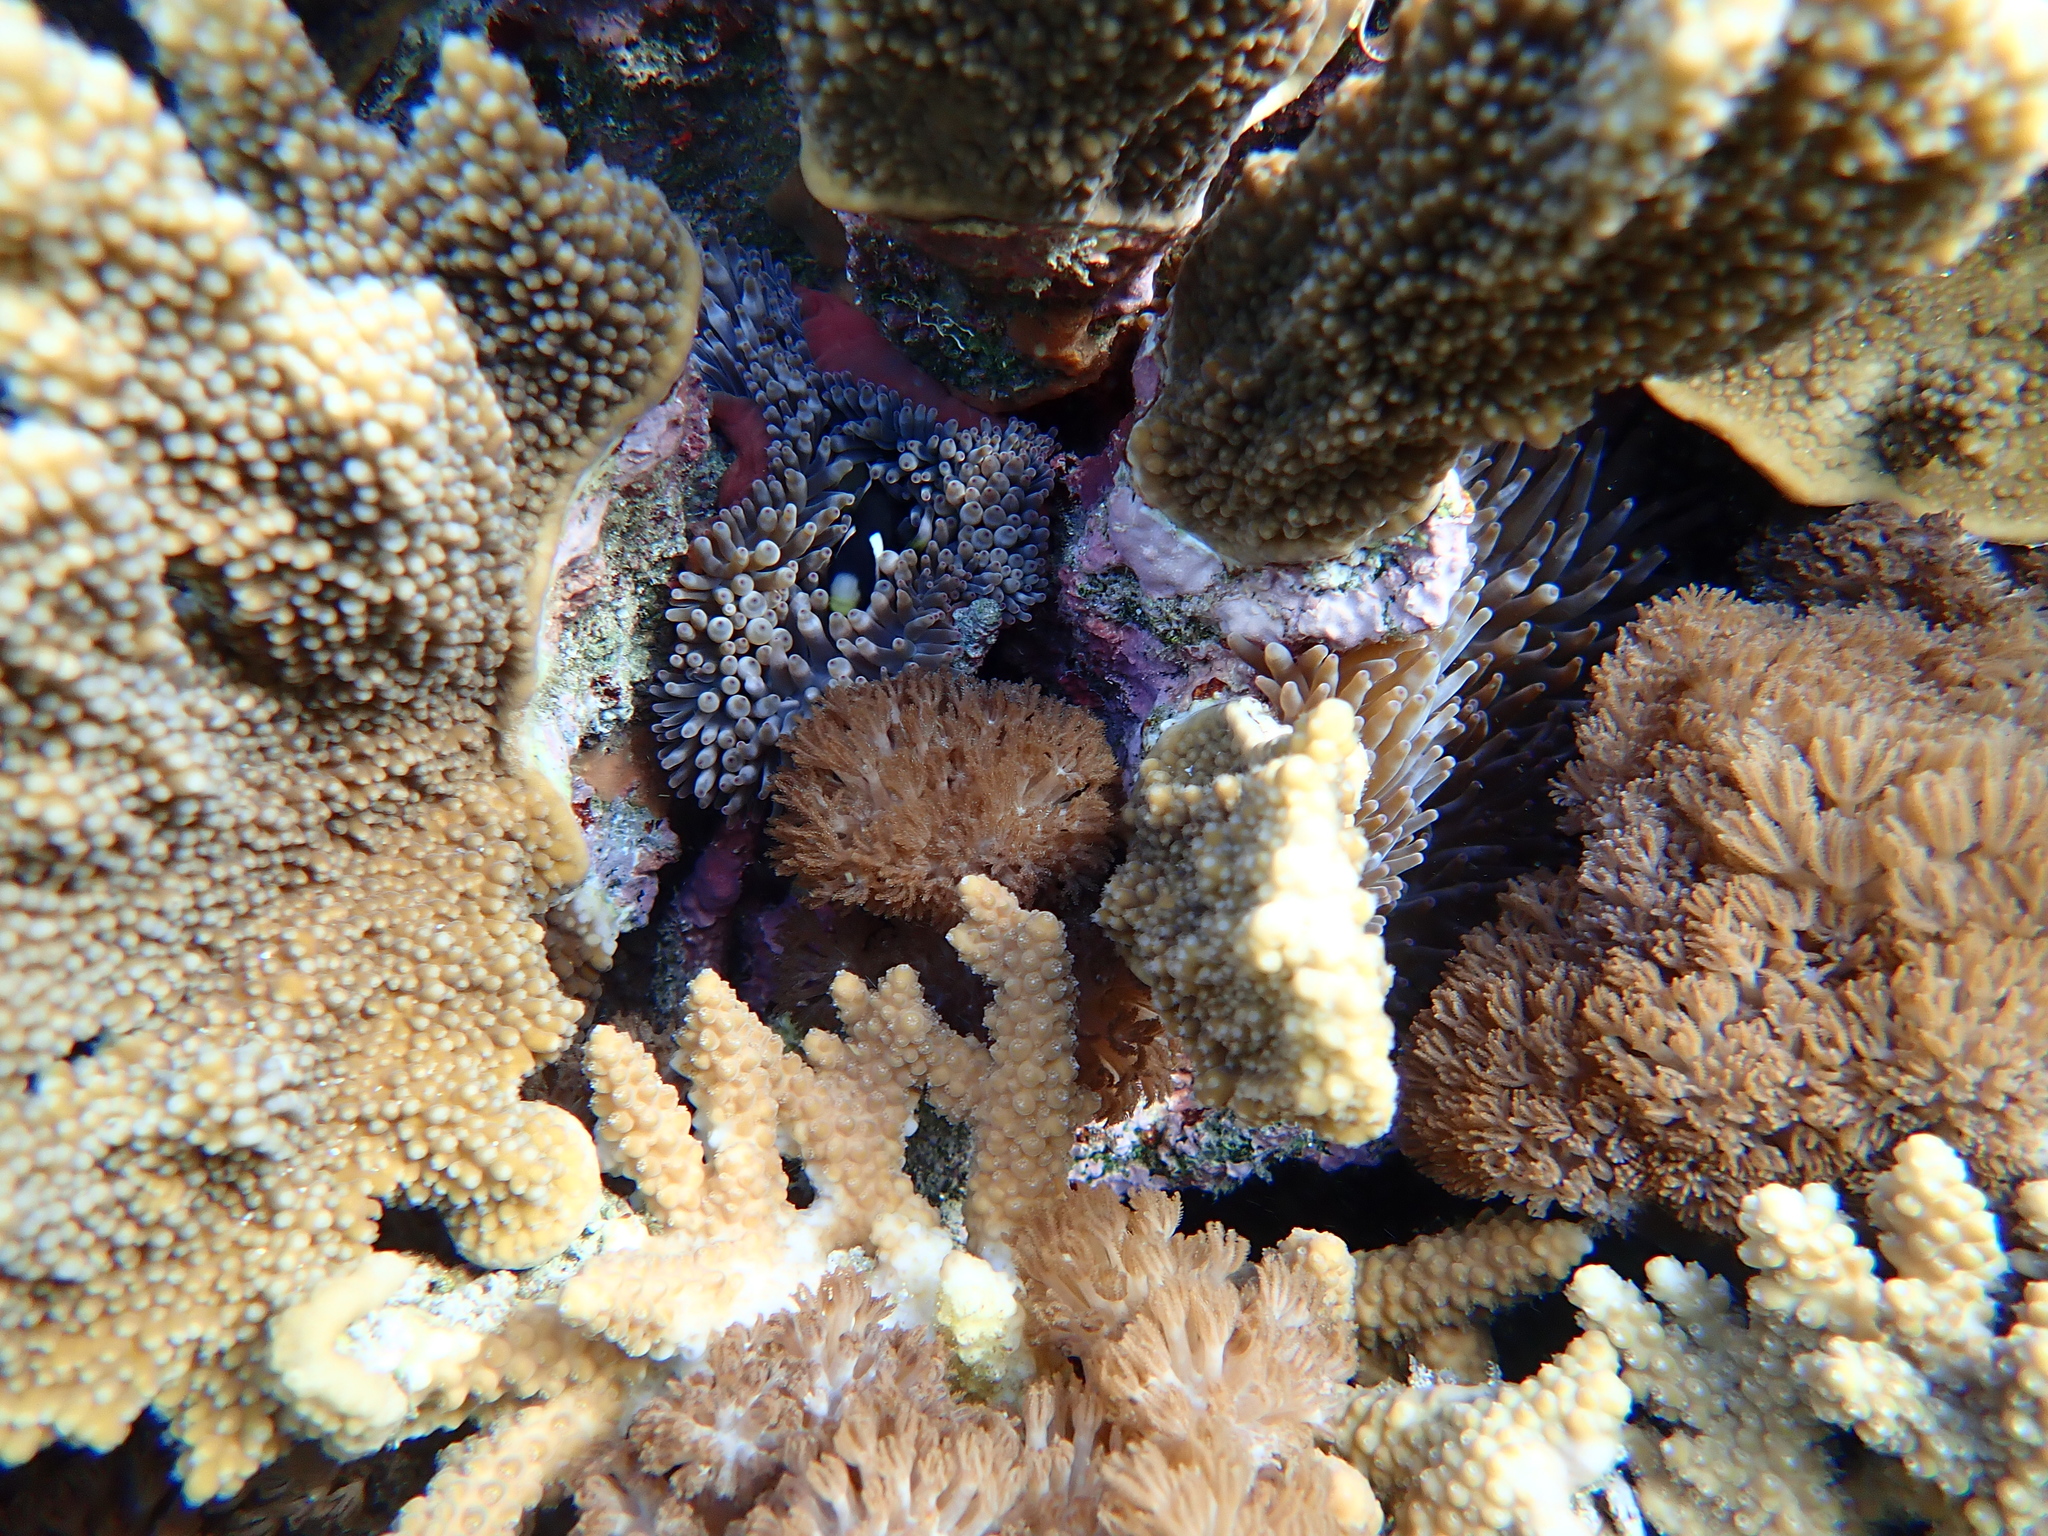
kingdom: Animalia
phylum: Chordata
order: Perciformes
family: Pomacentridae
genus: Amphiprion
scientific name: Amphiprion mccullochi
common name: Mcculloch's anemonefish
